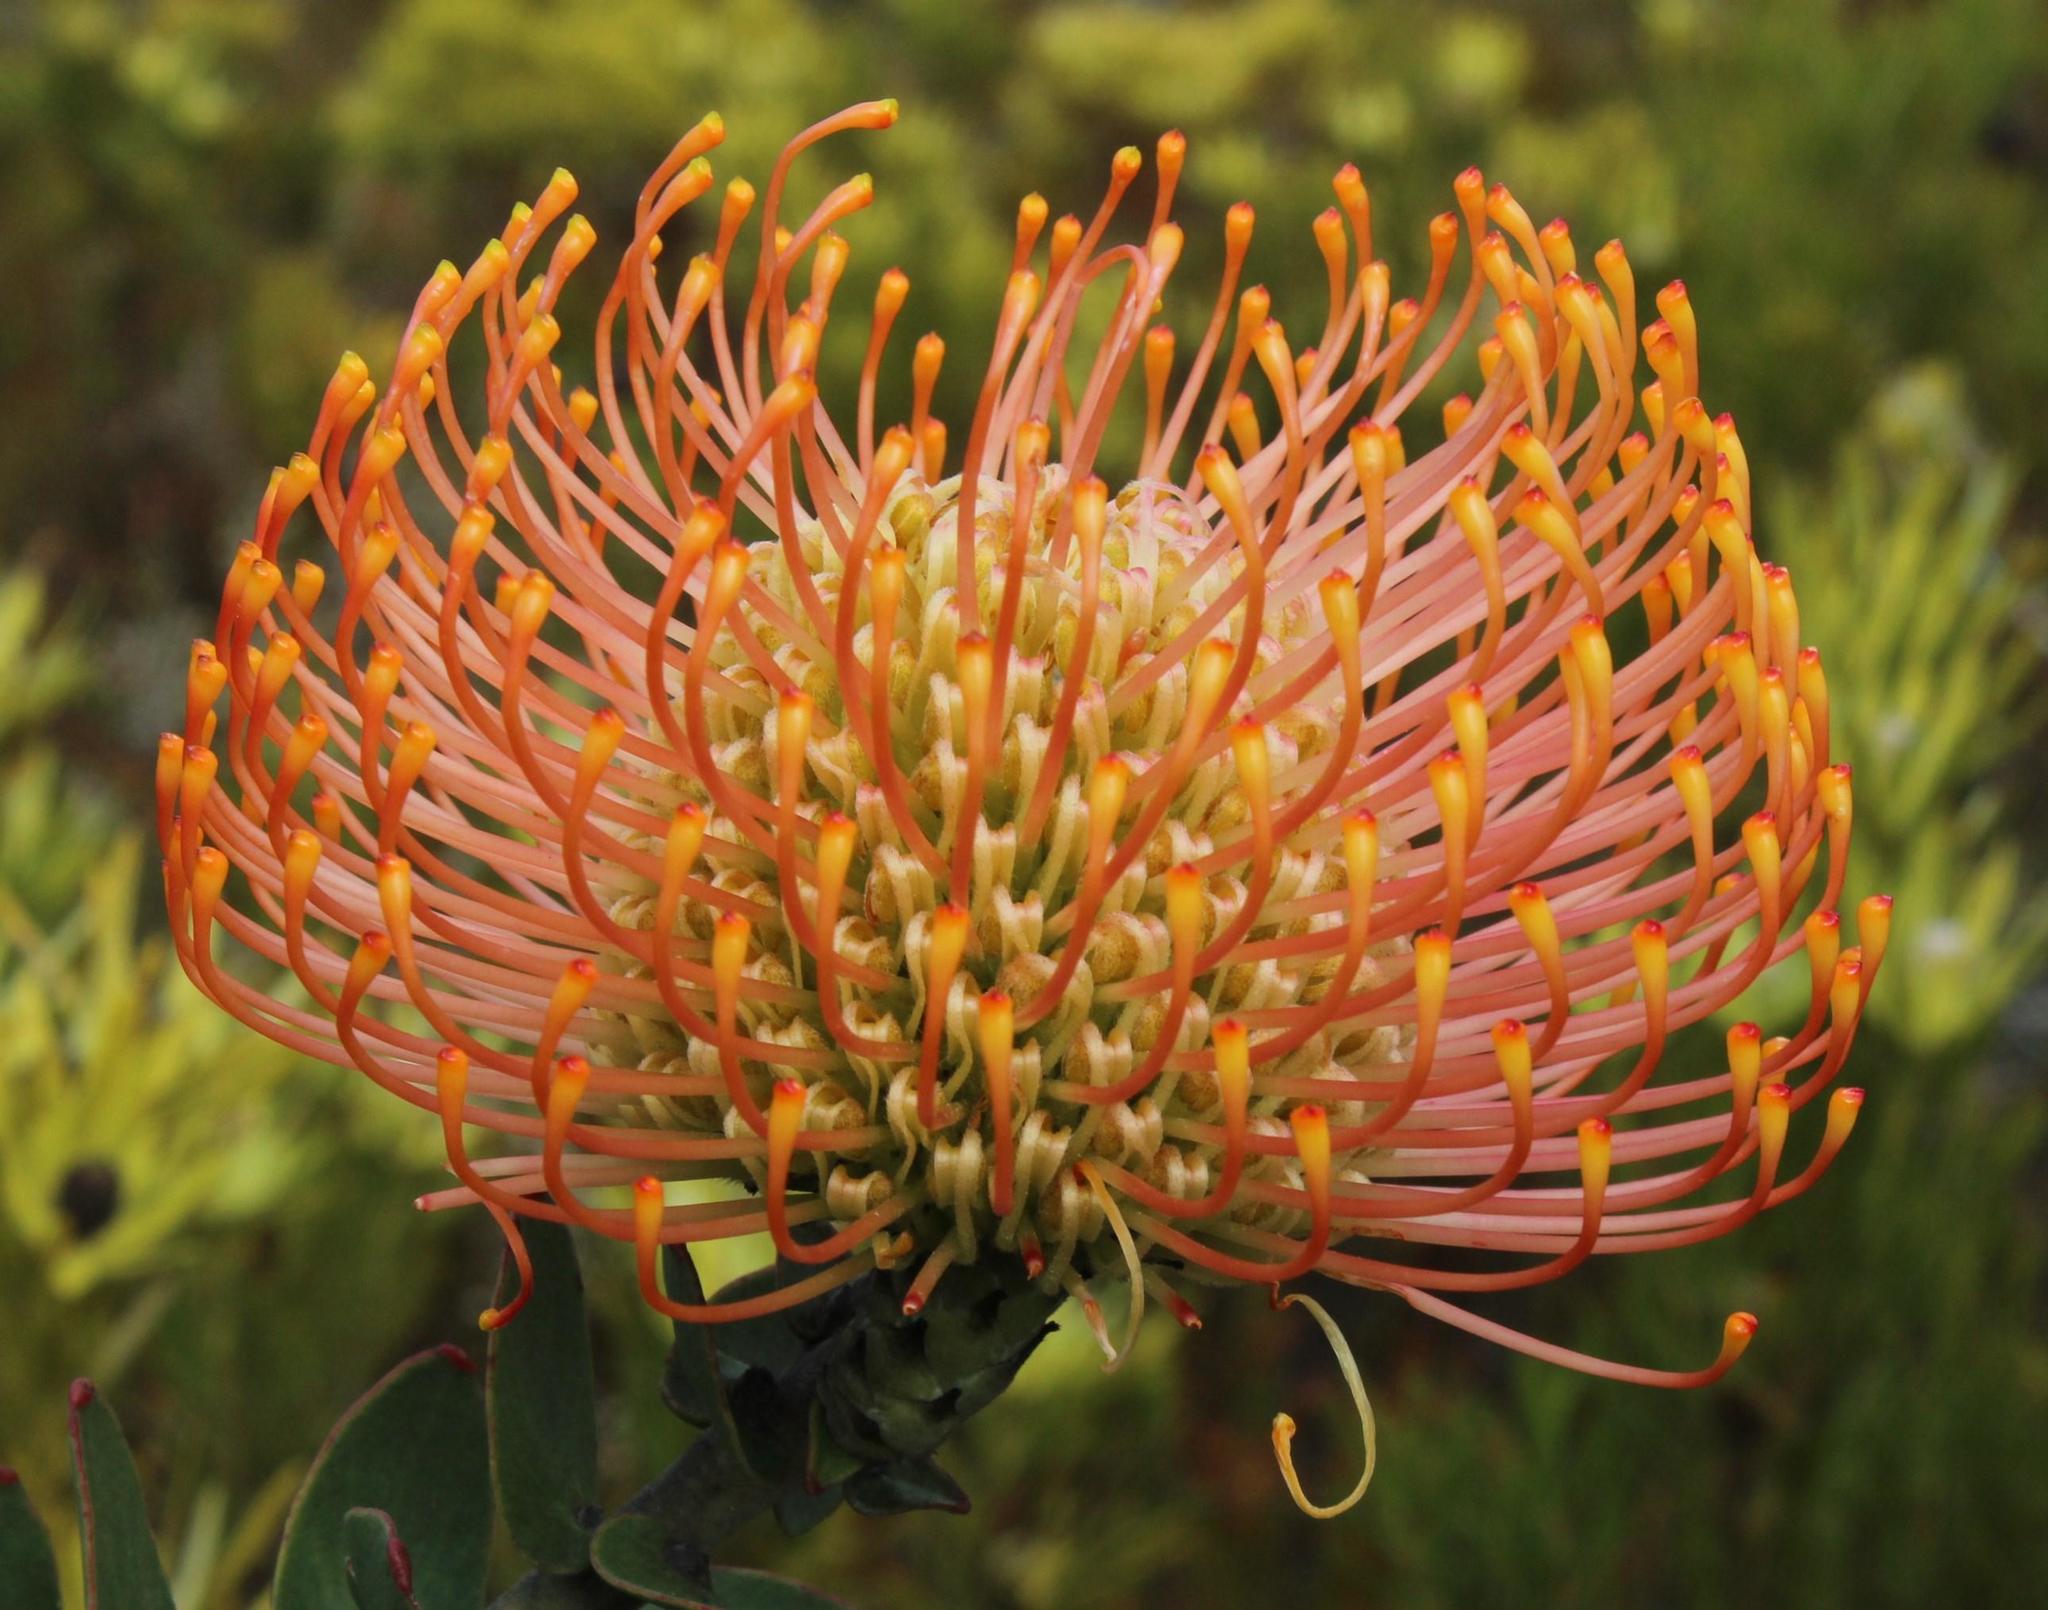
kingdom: Plantae
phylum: Tracheophyta
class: Magnoliopsida
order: Proteales
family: Proteaceae
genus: Leucospermum
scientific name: Leucospermum cordifolium
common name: Red pincushion-protea
